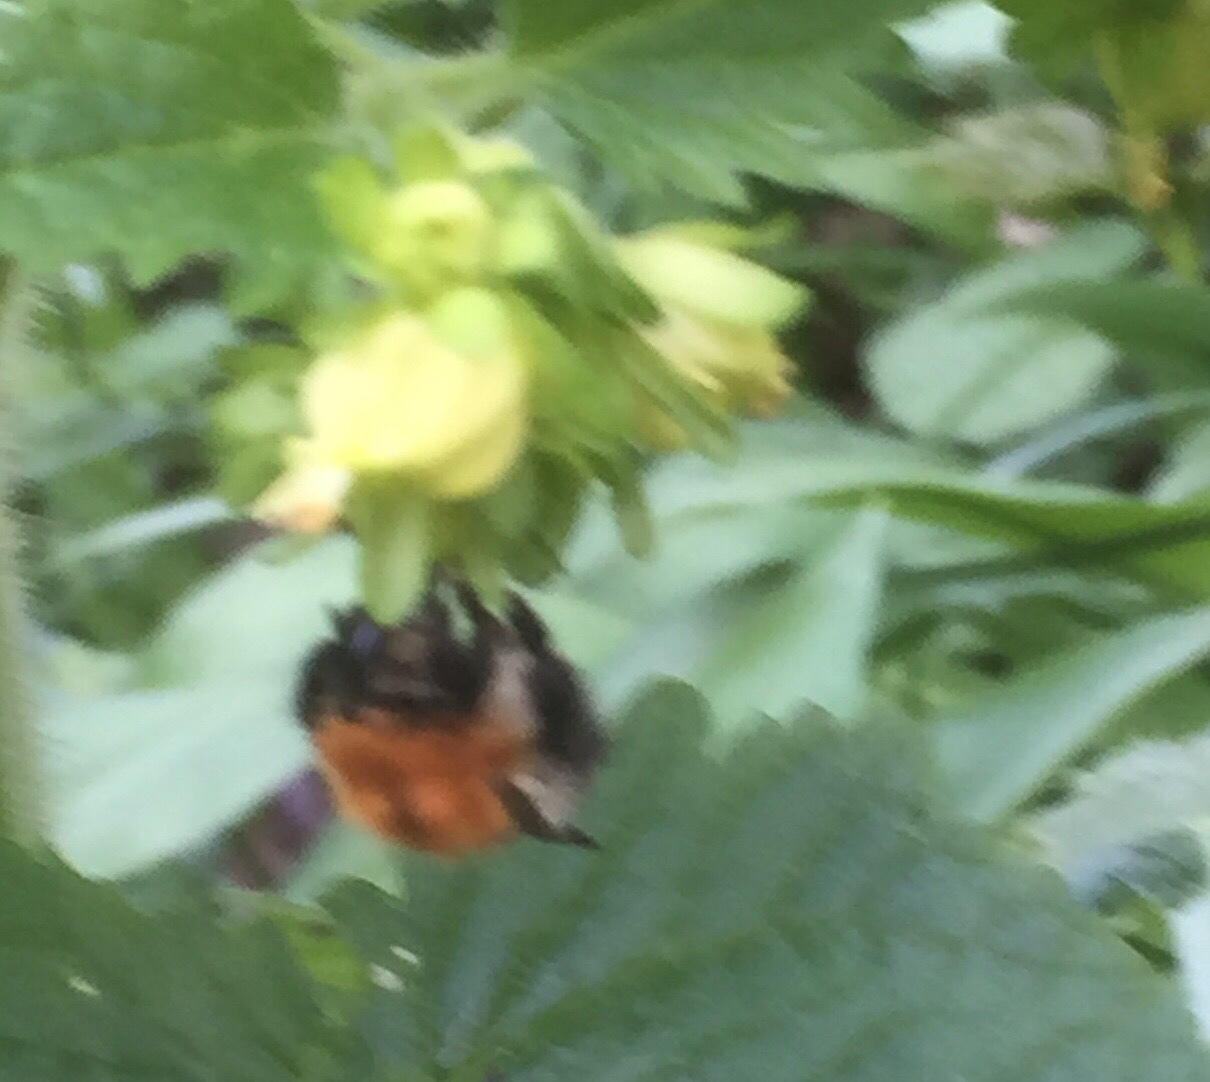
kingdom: Animalia
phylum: Arthropoda
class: Insecta
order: Hymenoptera
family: Apidae
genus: Bombus
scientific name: Bombus pascuorum
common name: Common carder bee
